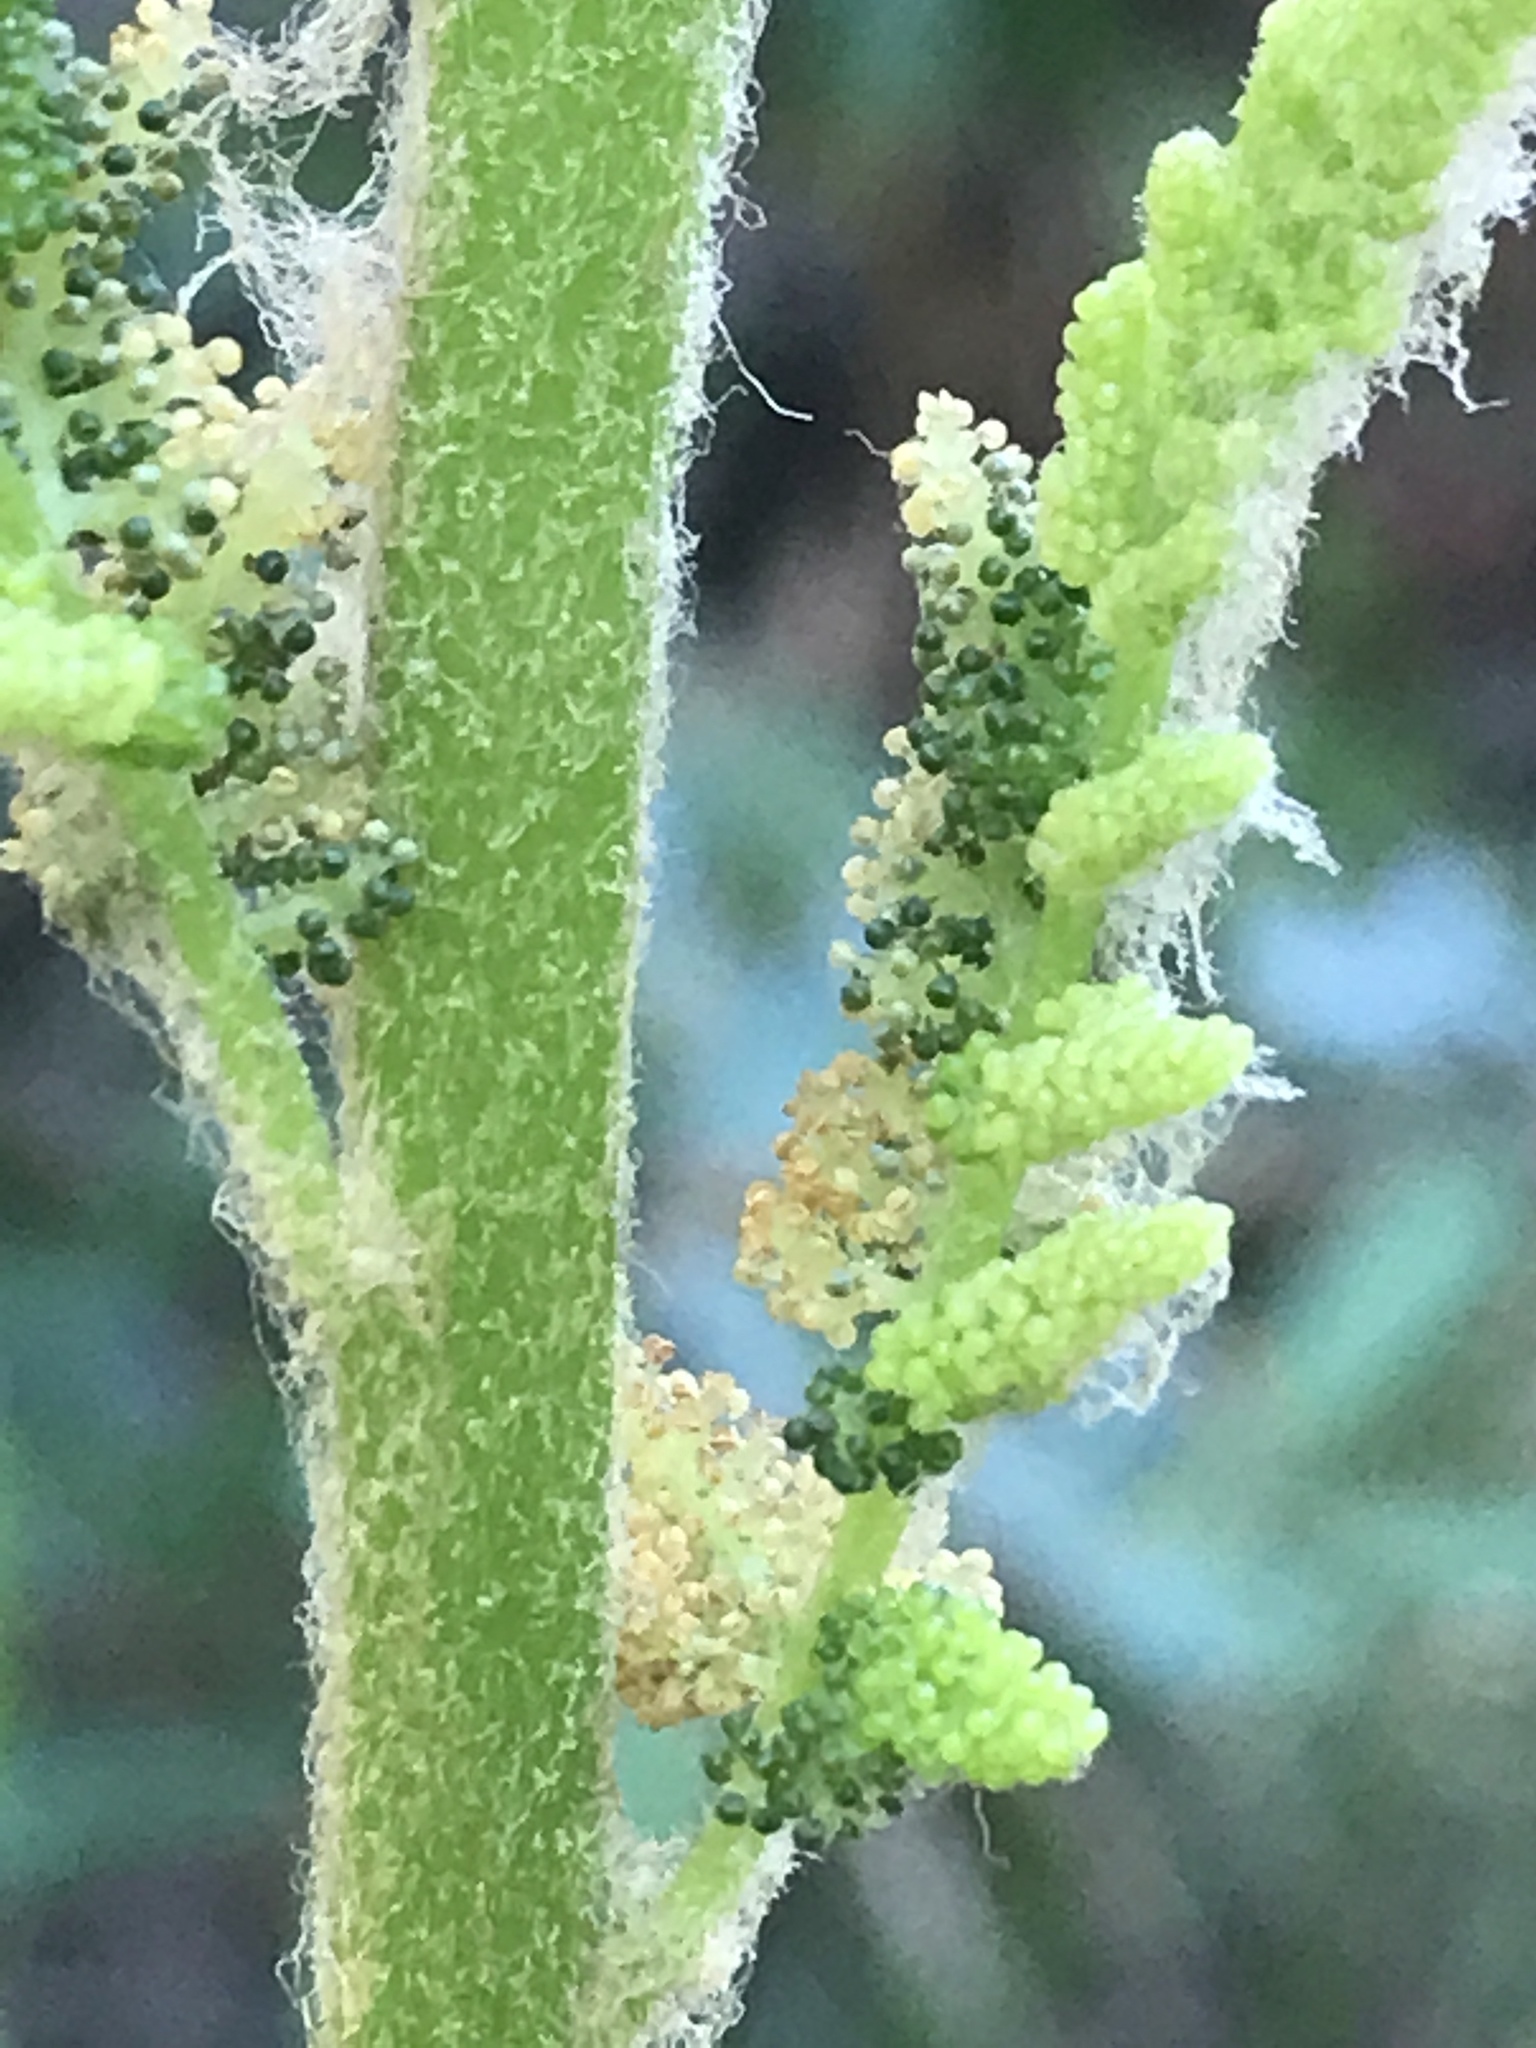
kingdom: Plantae
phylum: Tracheophyta
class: Polypodiopsida
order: Osmundales
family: Osmundaceae
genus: Osmundastrum
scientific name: Osmundastrum cinnamomeum
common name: Cinnamon fern
